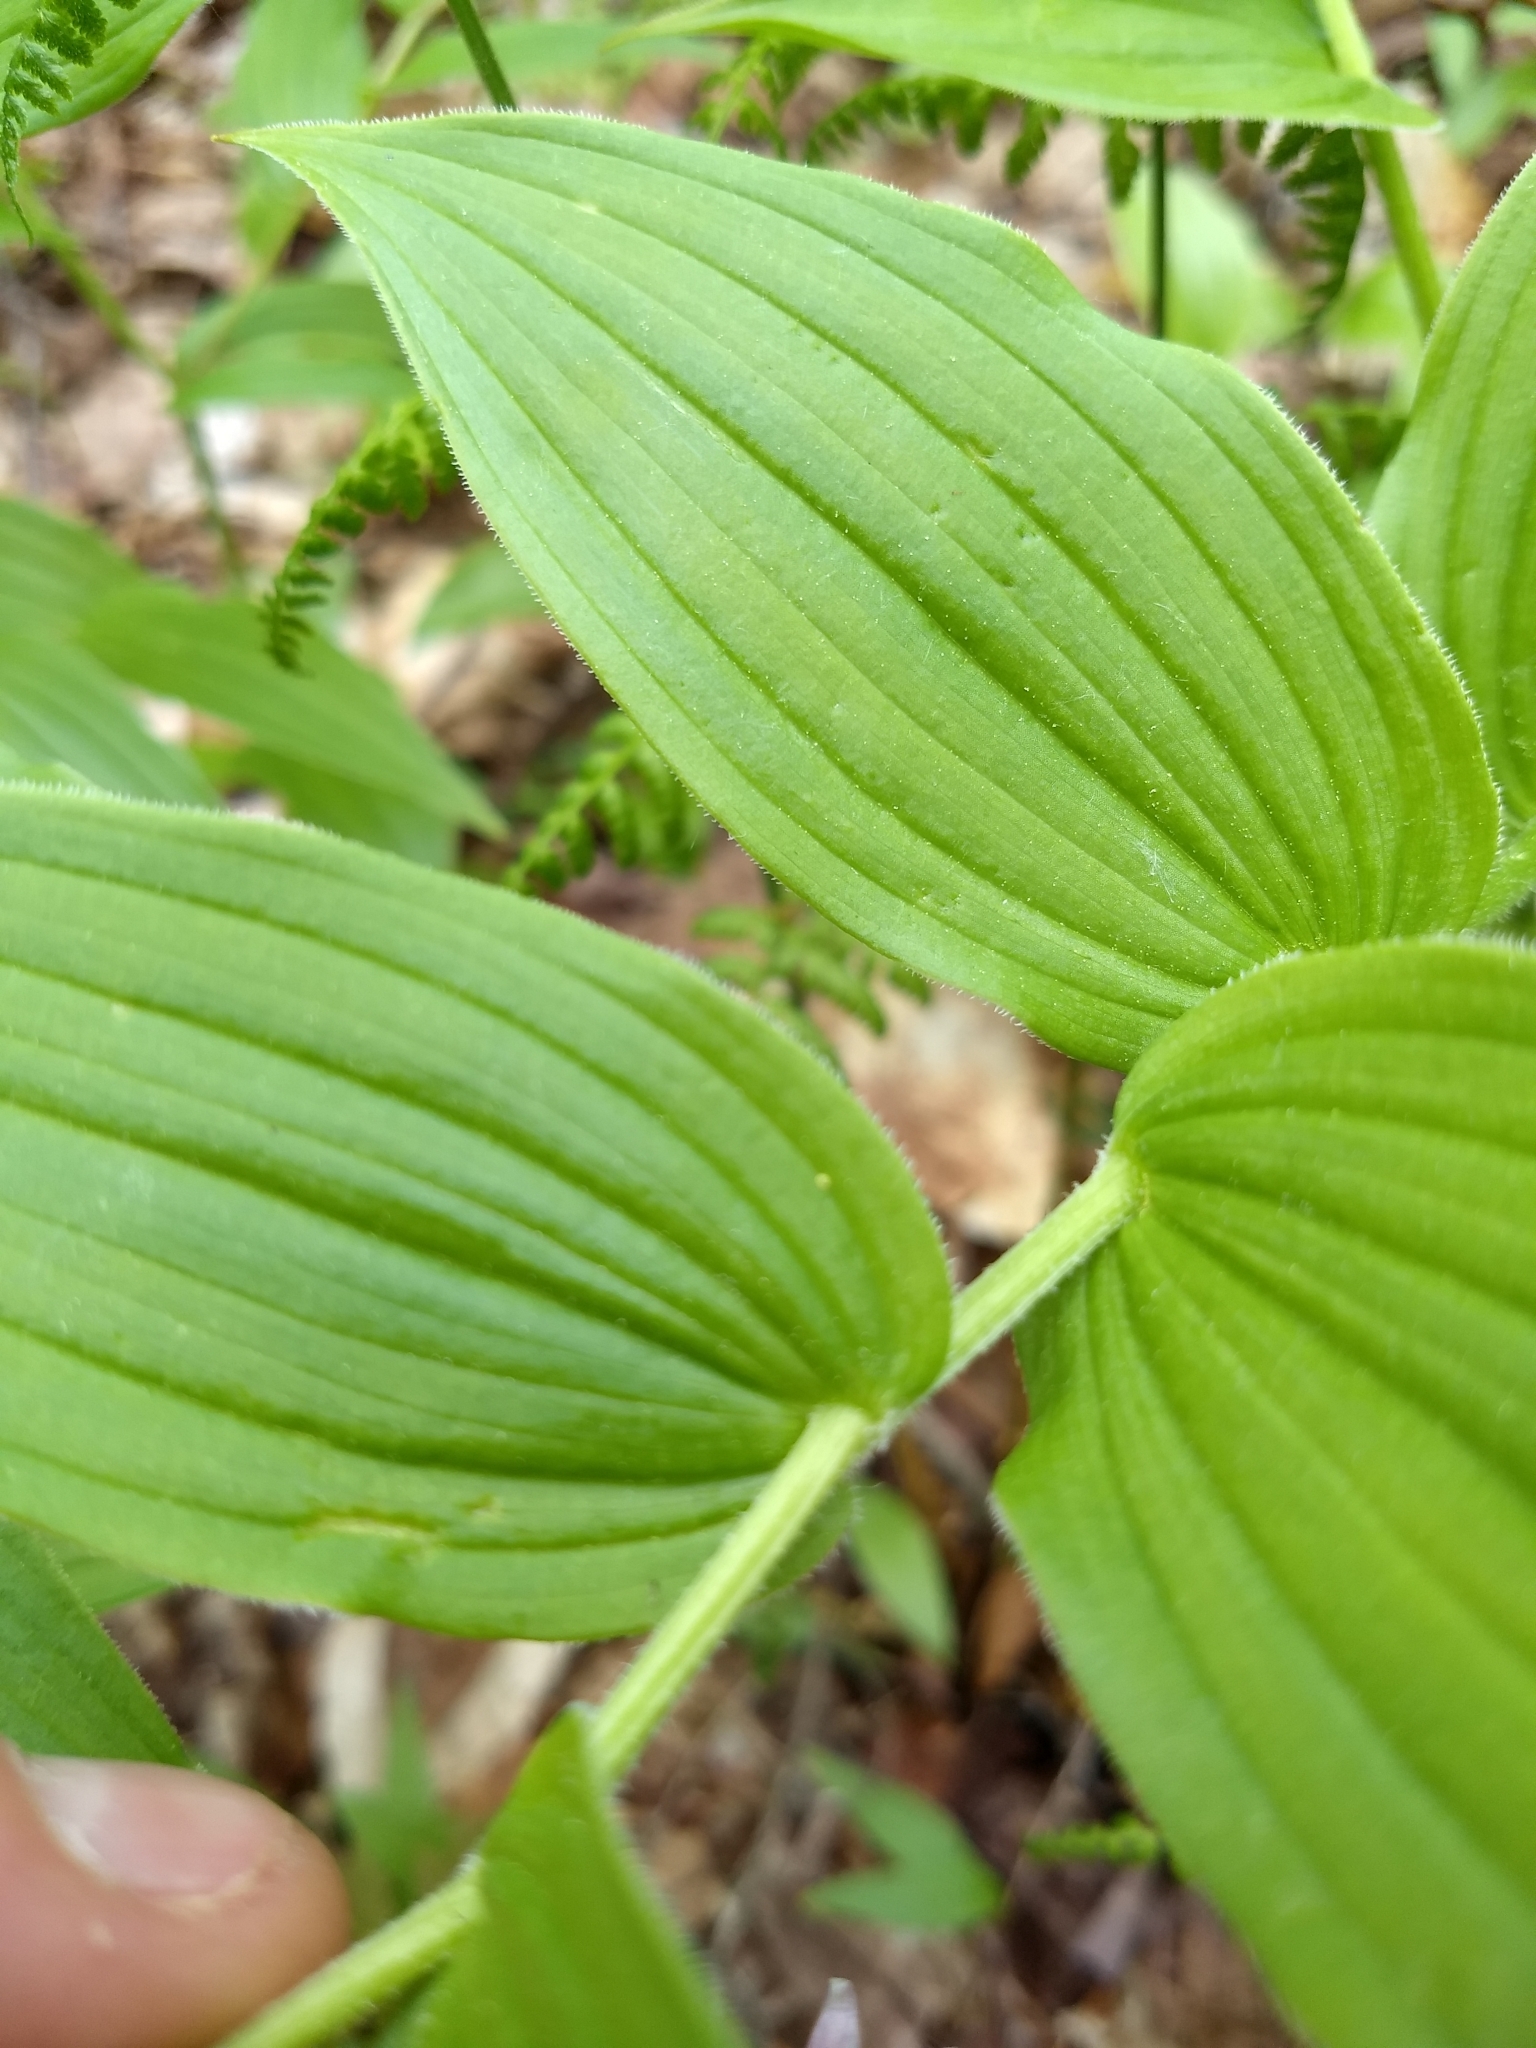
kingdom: Plantae
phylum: Tracheophyta
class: Liliopsida
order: Liliales
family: Liliaceae
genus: Streptopus
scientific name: Streptopus lanceolatus
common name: Rose mandarin
